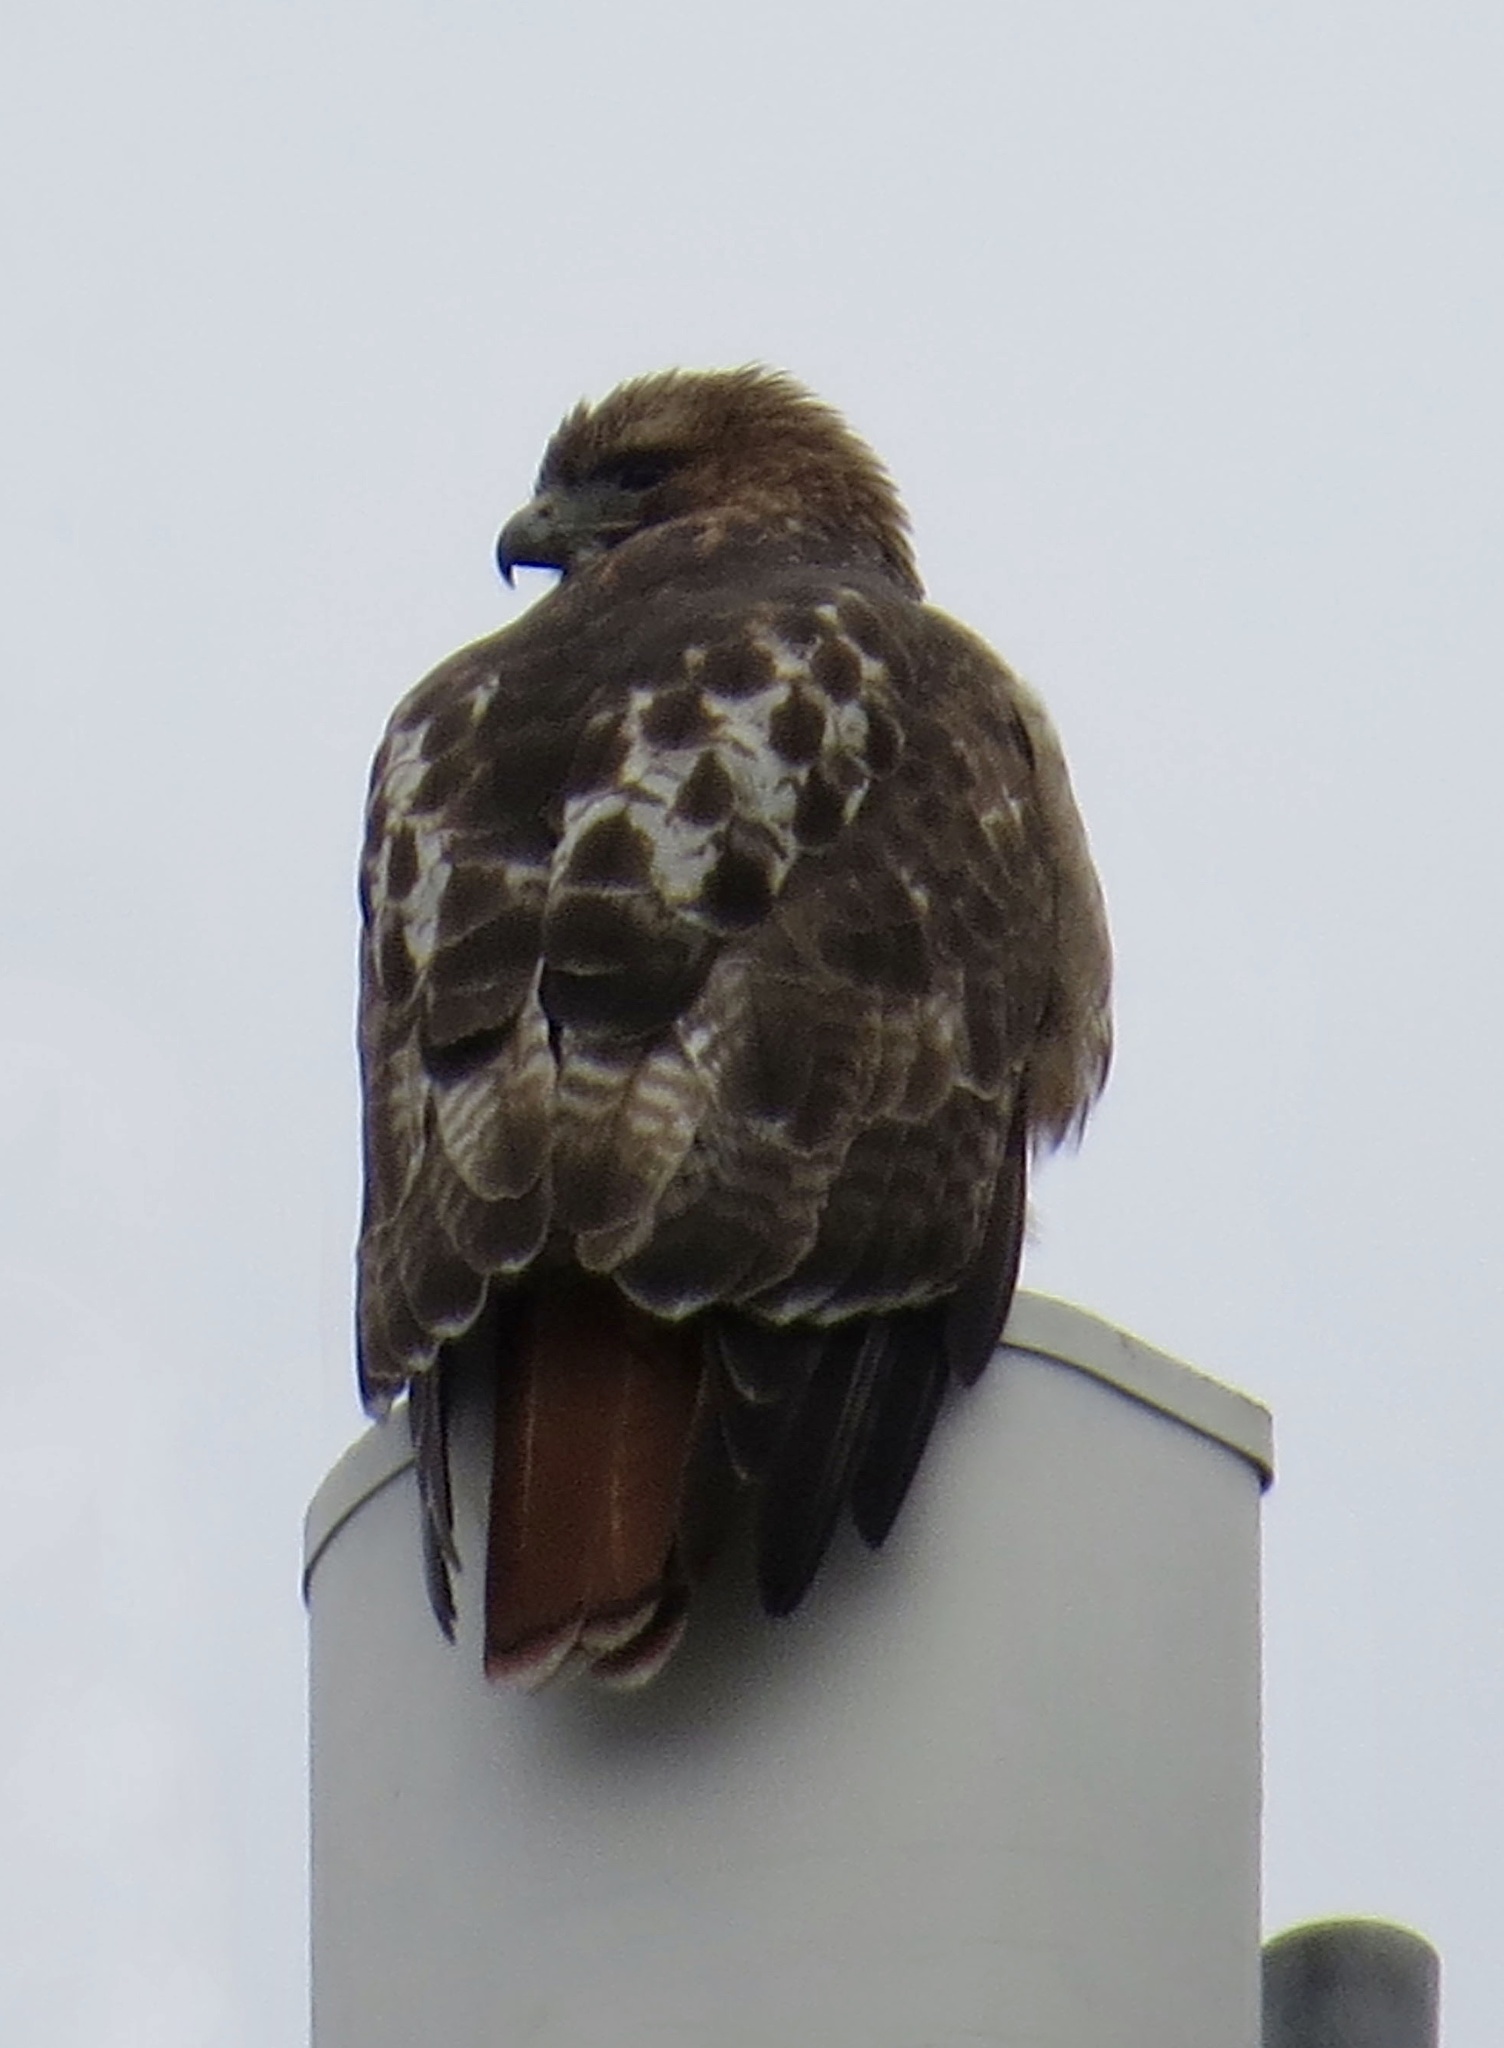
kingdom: Animalia
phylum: Chordata
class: Aves
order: Accipitriformes
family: Accipitridae
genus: Buteo
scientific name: Buteo jamaicensis
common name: Red-tailed hawk
